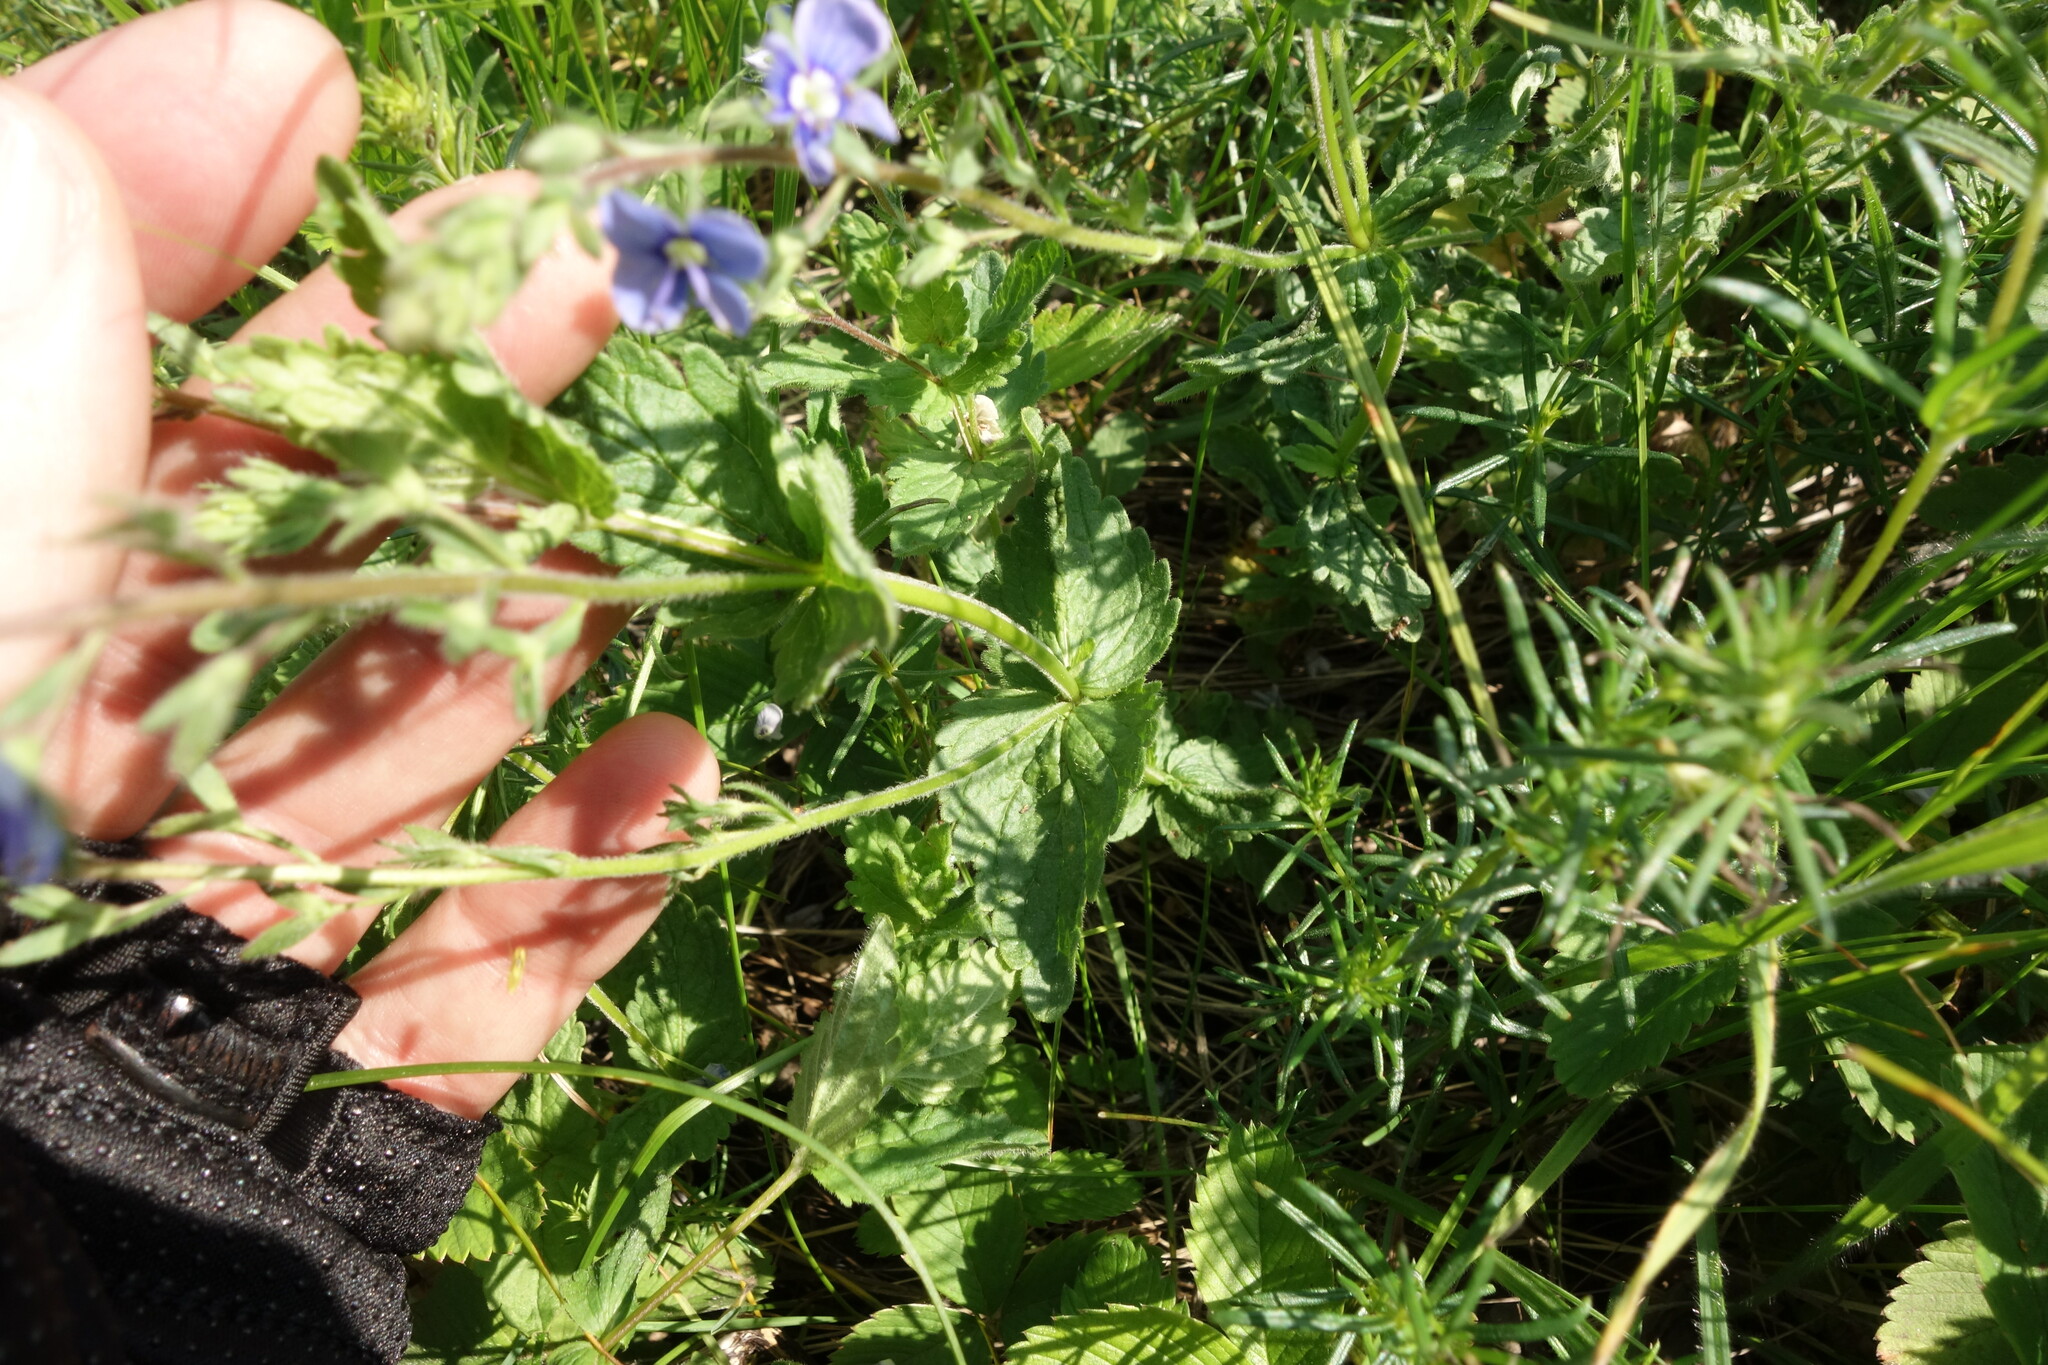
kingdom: Plantae
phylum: Tracheophyta
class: Magnoliopsida
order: Lamiales
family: Plantaginaceae
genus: Veronica
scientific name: Veronica chamaedrys
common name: Germander speedwell
